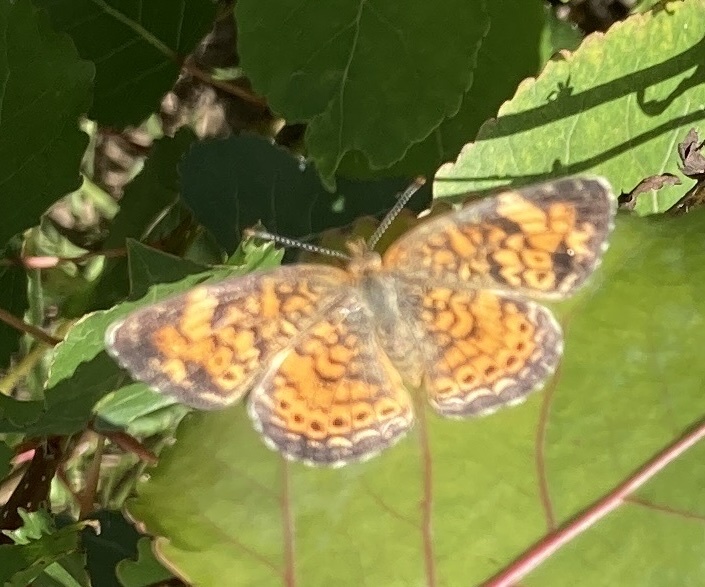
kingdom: Animalia
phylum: Arthropoda
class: Insecta
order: Lepidoptera
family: Nymphalidae
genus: Phyciodes
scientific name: Phyciodes tharos
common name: Pearl crescent
